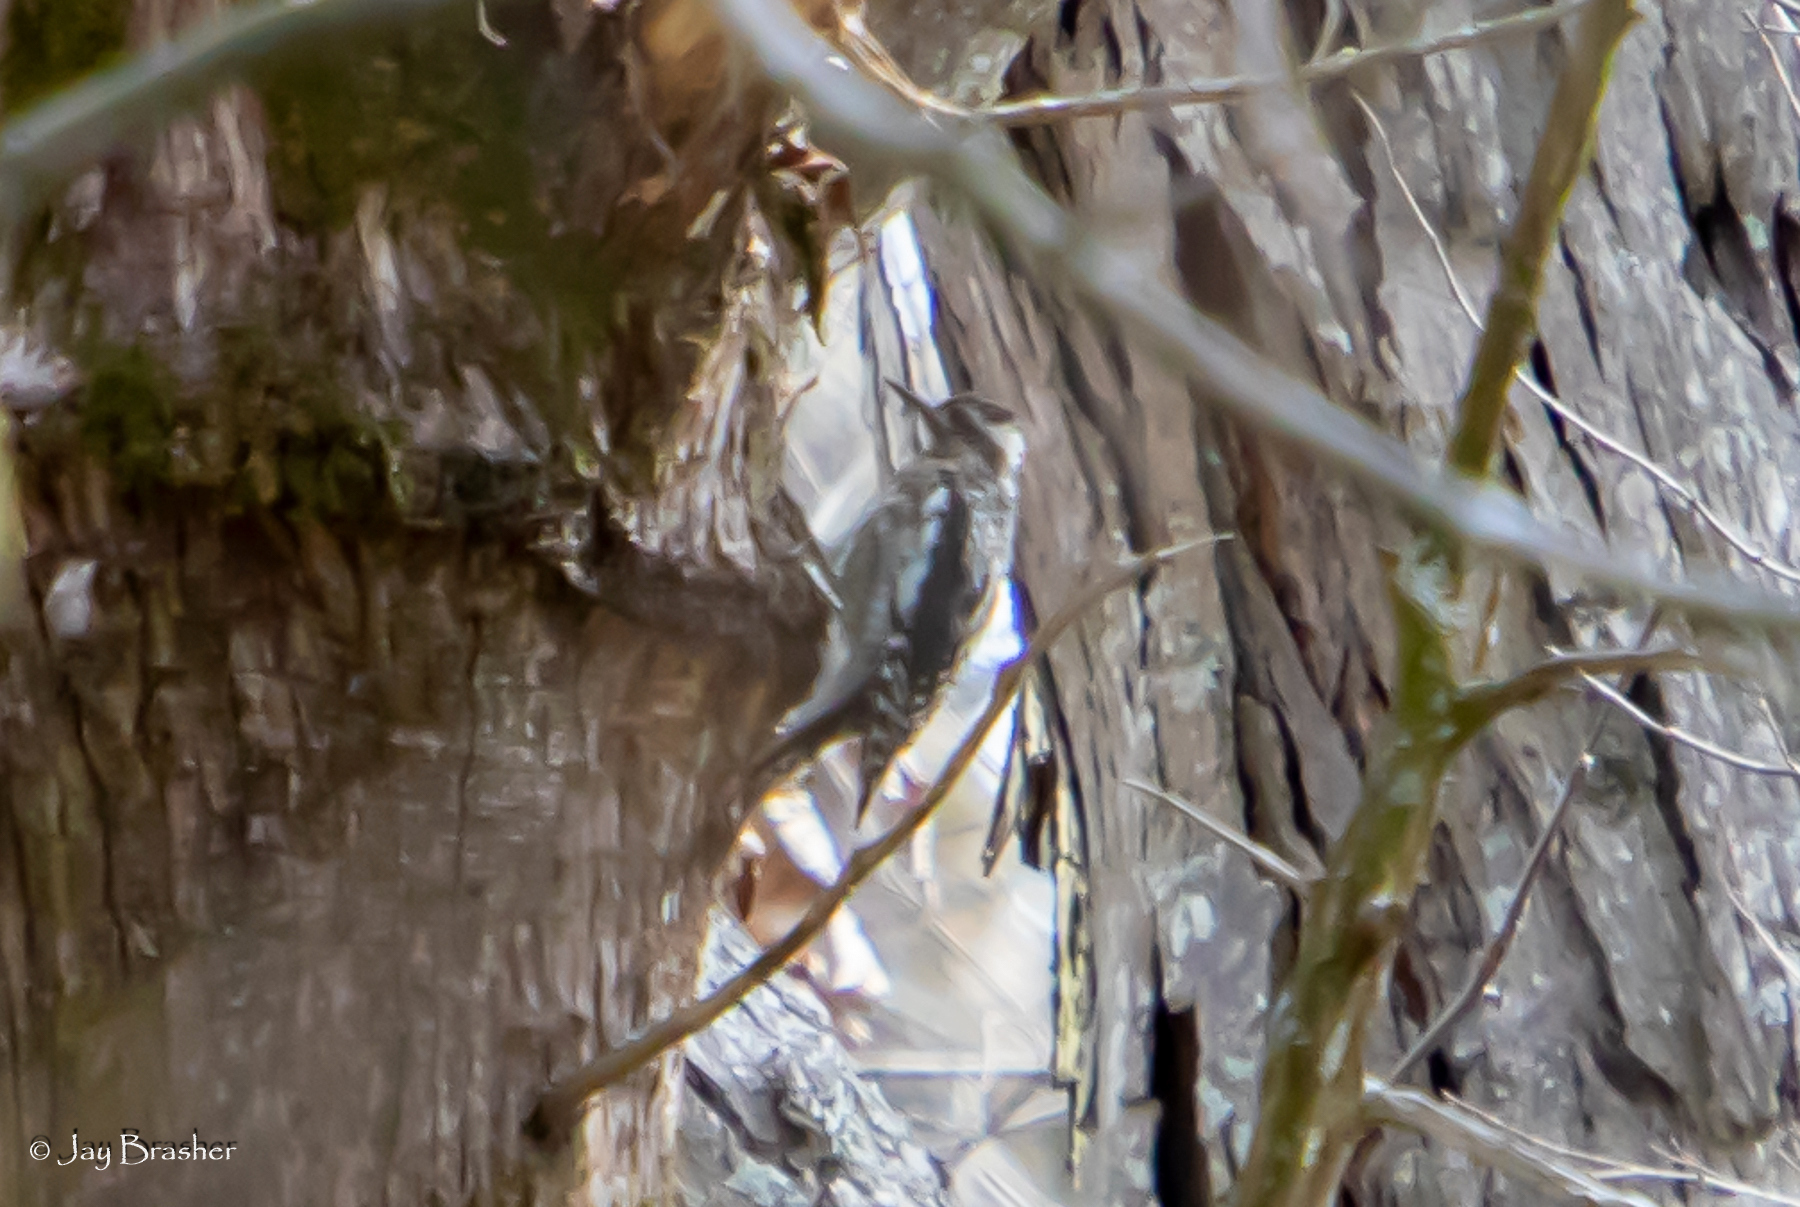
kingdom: Animalia
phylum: Chordata
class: Aves
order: Piciformes
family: Picidae
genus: Sphyrapicus
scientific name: Sphyrapicus varius
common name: Yellow-bellied sapsucker
